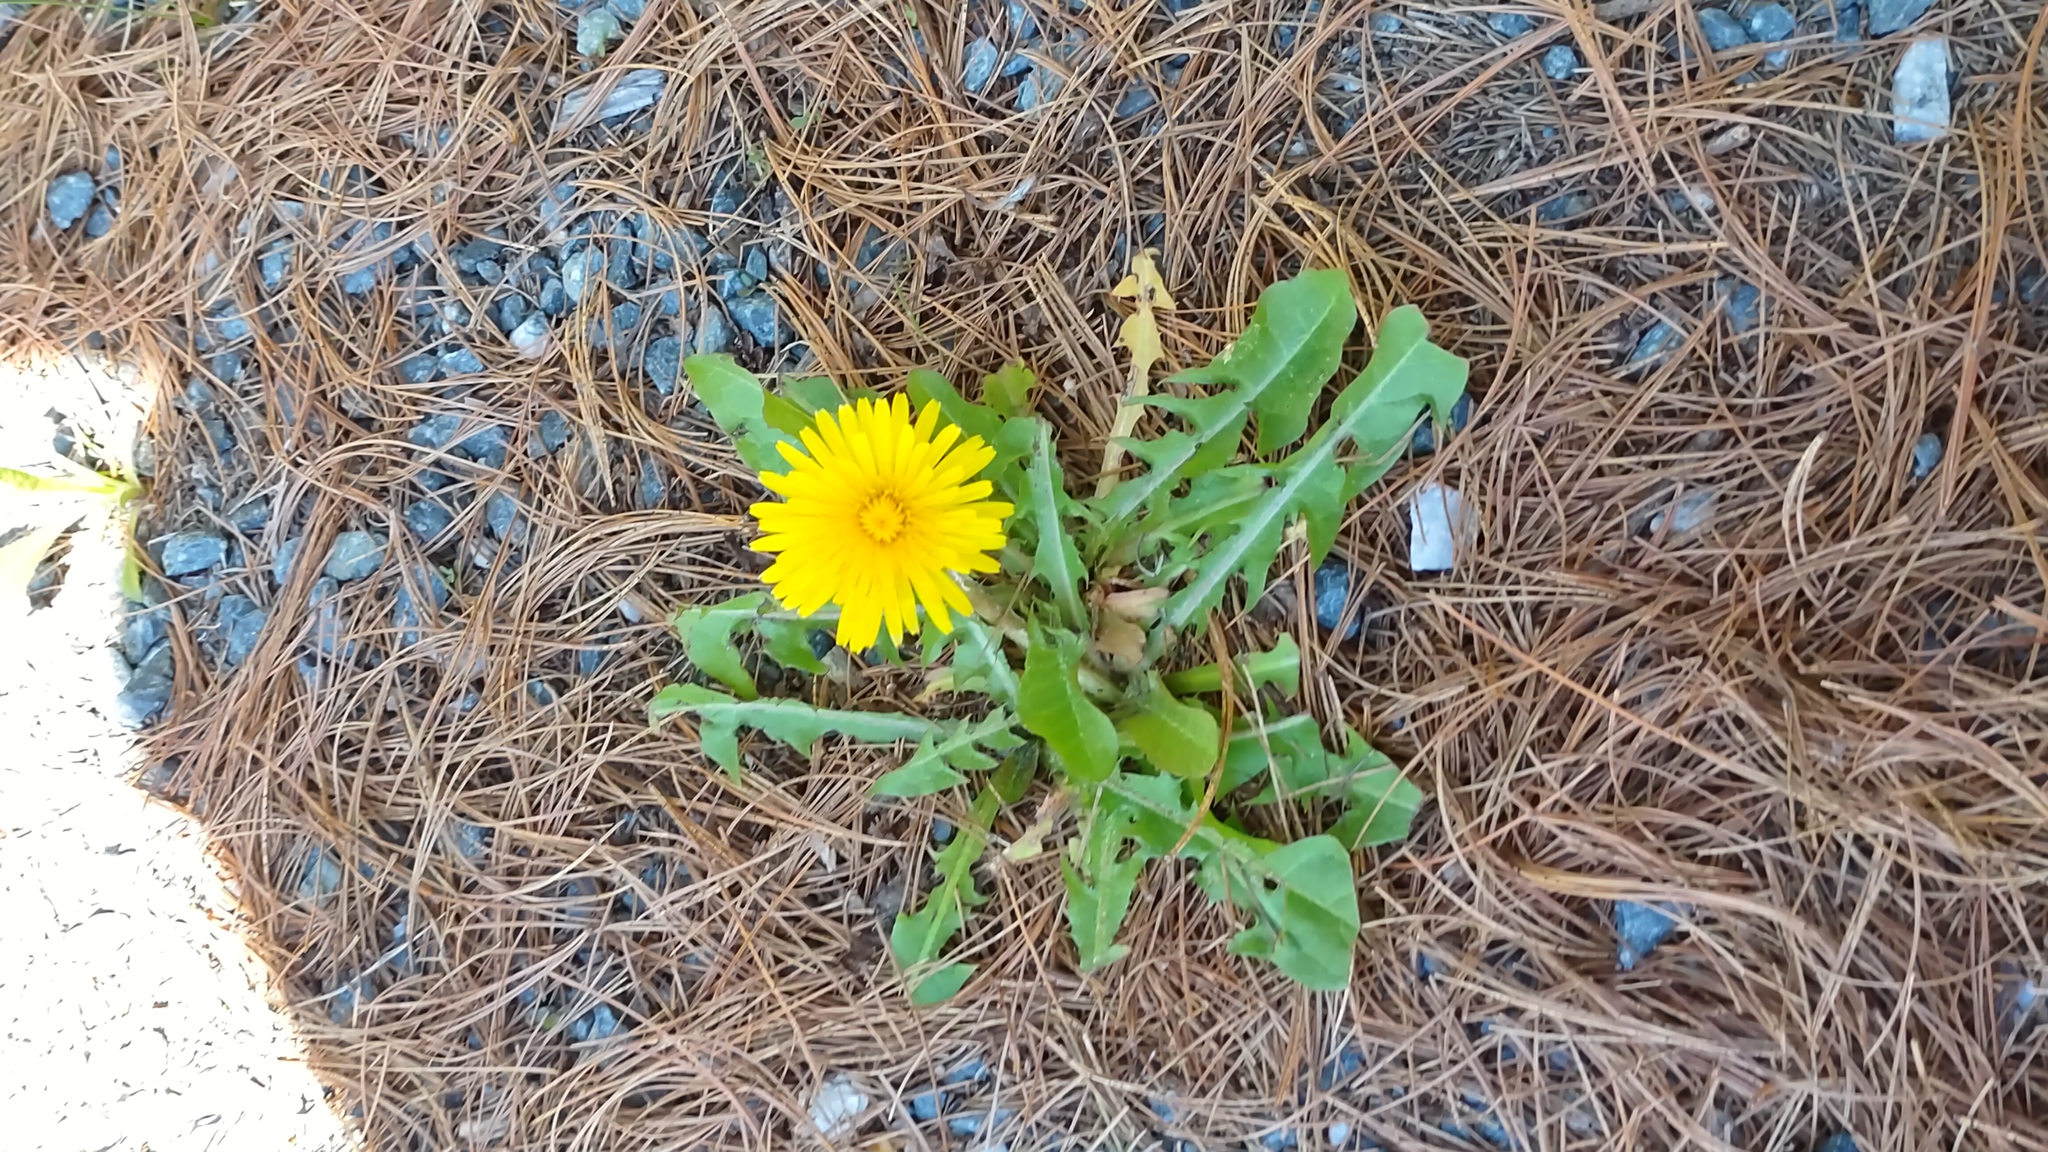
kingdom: Plantae
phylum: Tracheophyta
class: Magnoliopsida
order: Asterales
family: Asteraceae
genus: Taraxacum
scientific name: Taraxacum
